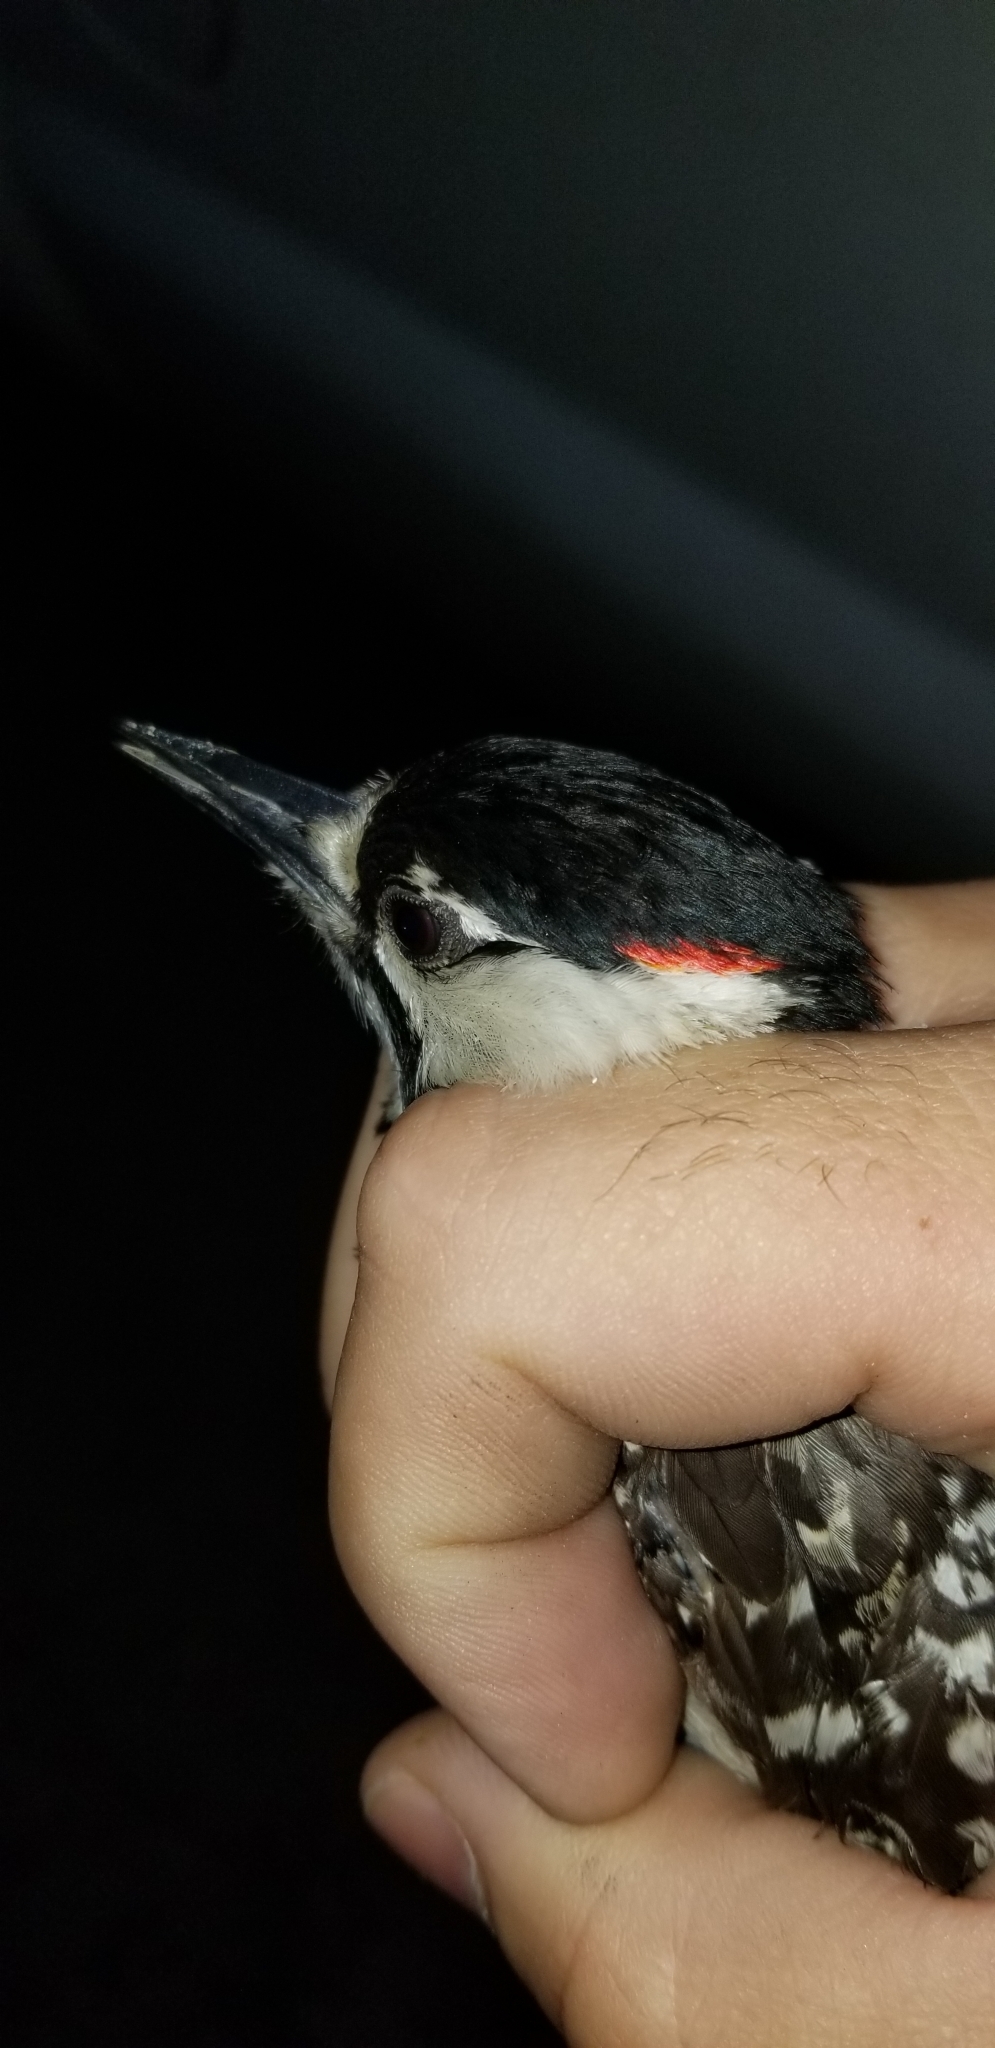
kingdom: Animalia
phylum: Chordata
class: Aves
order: Piciformes
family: Picidae
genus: Leuconotopicus
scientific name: Leuconotopicus borealis
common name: Red-cockaded woodpecker
